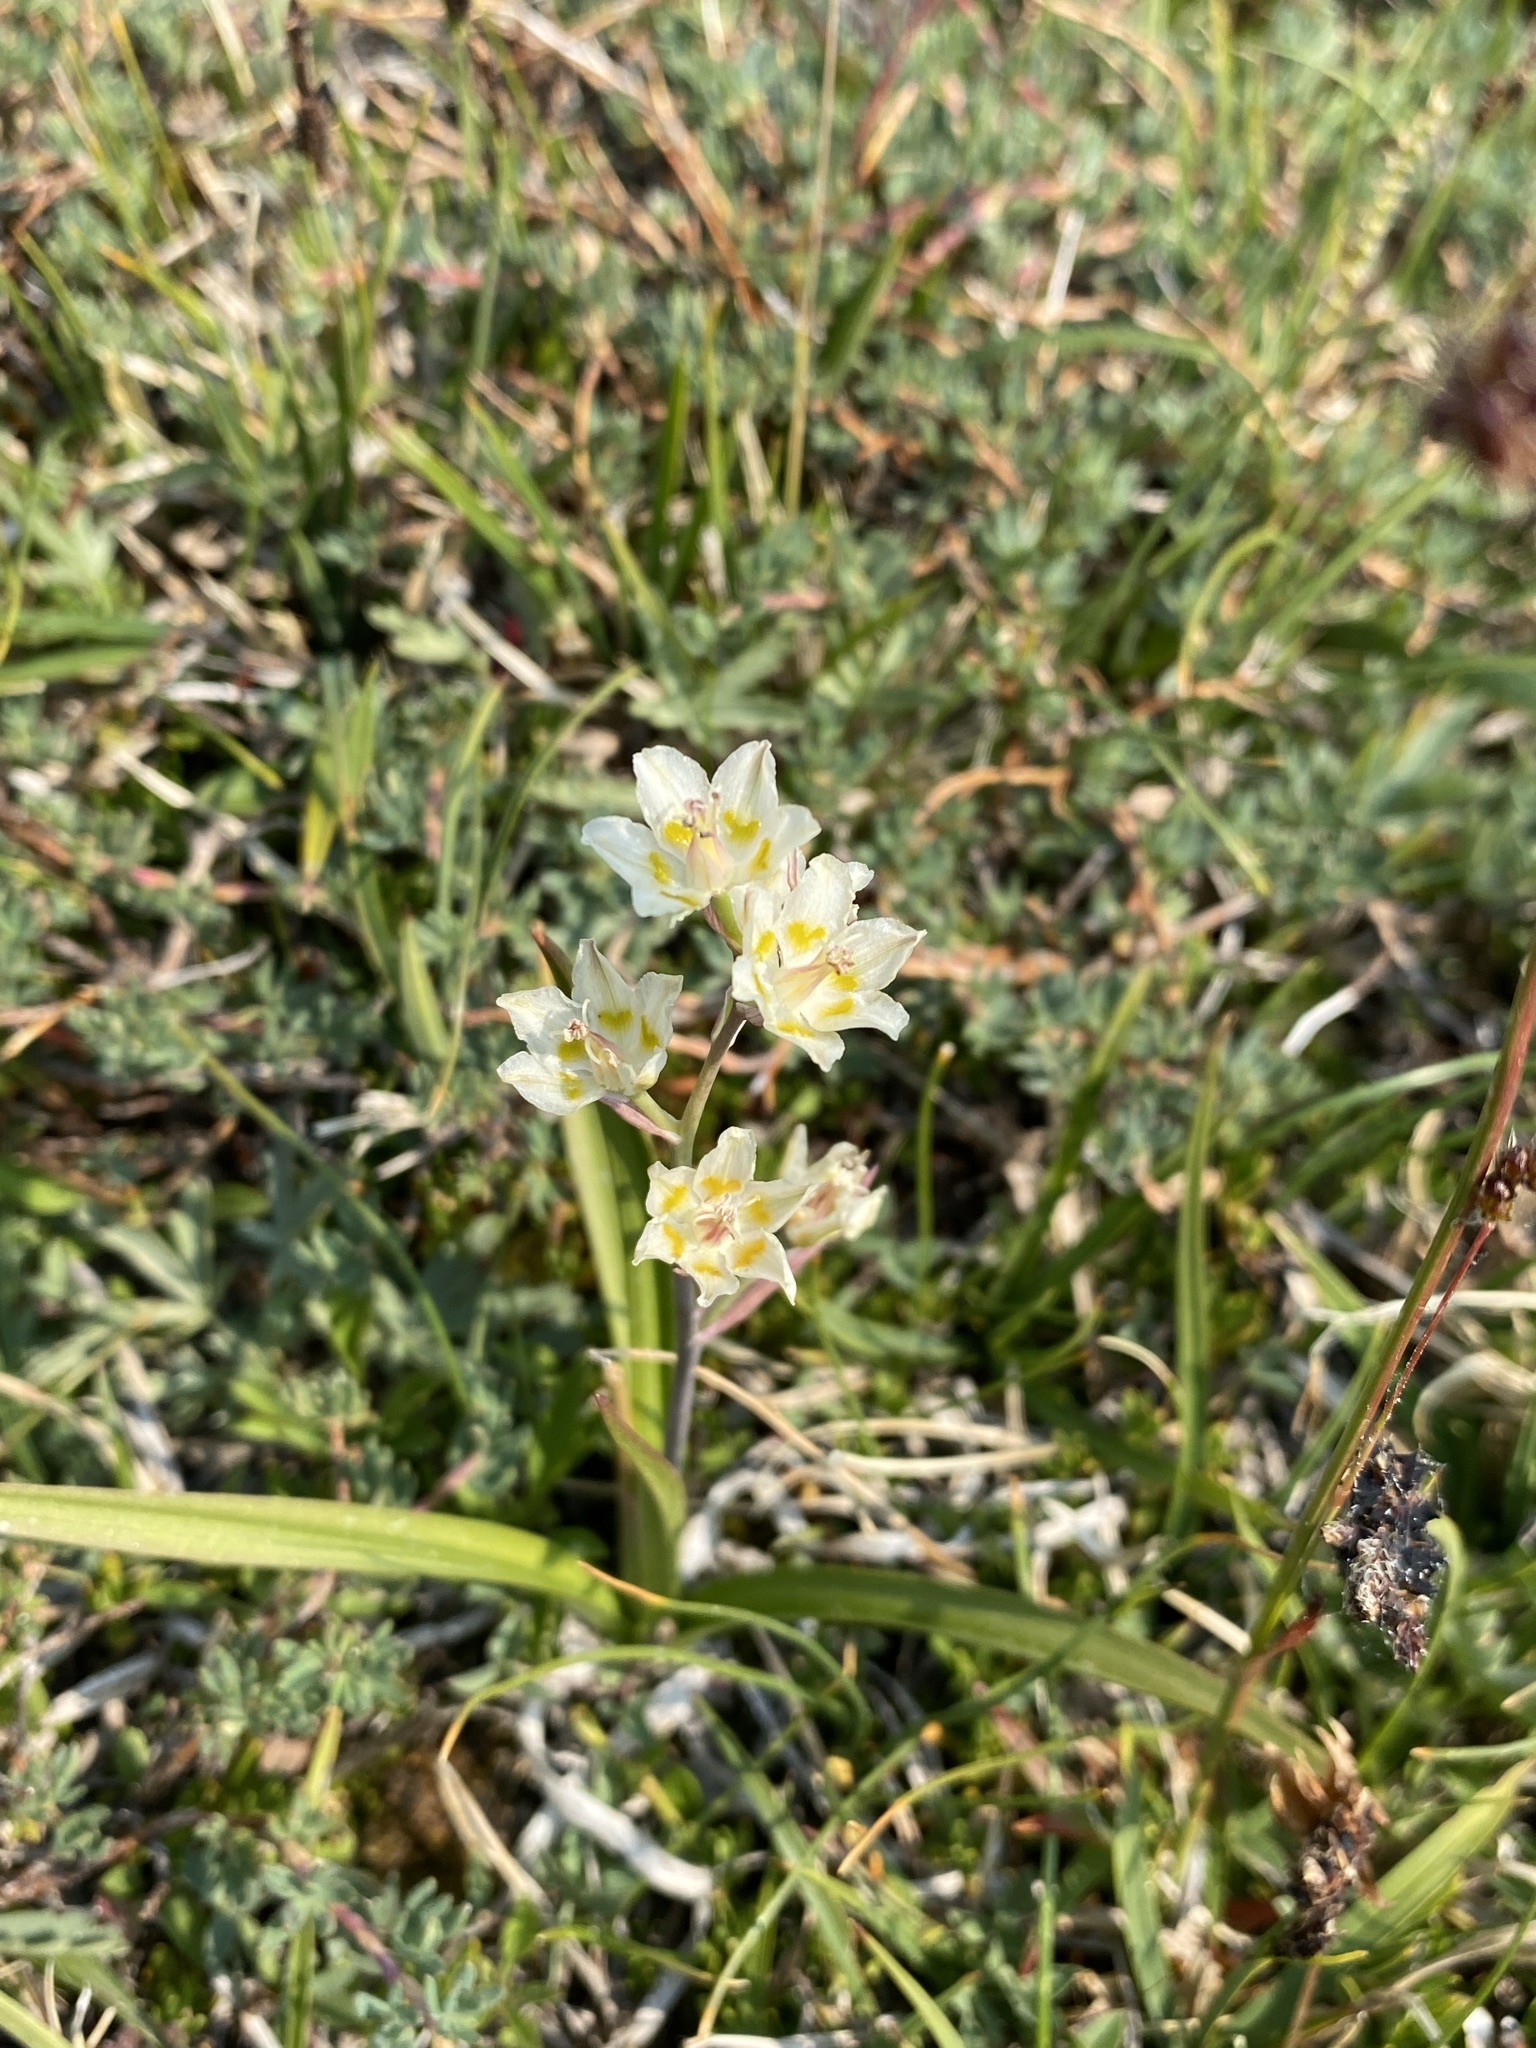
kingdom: Plantae
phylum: Tracheophyta
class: Liliopsida
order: Liliales
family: Melanthiaceae
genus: Anticlea
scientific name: Anticlea elegans
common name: Mountain death camas
